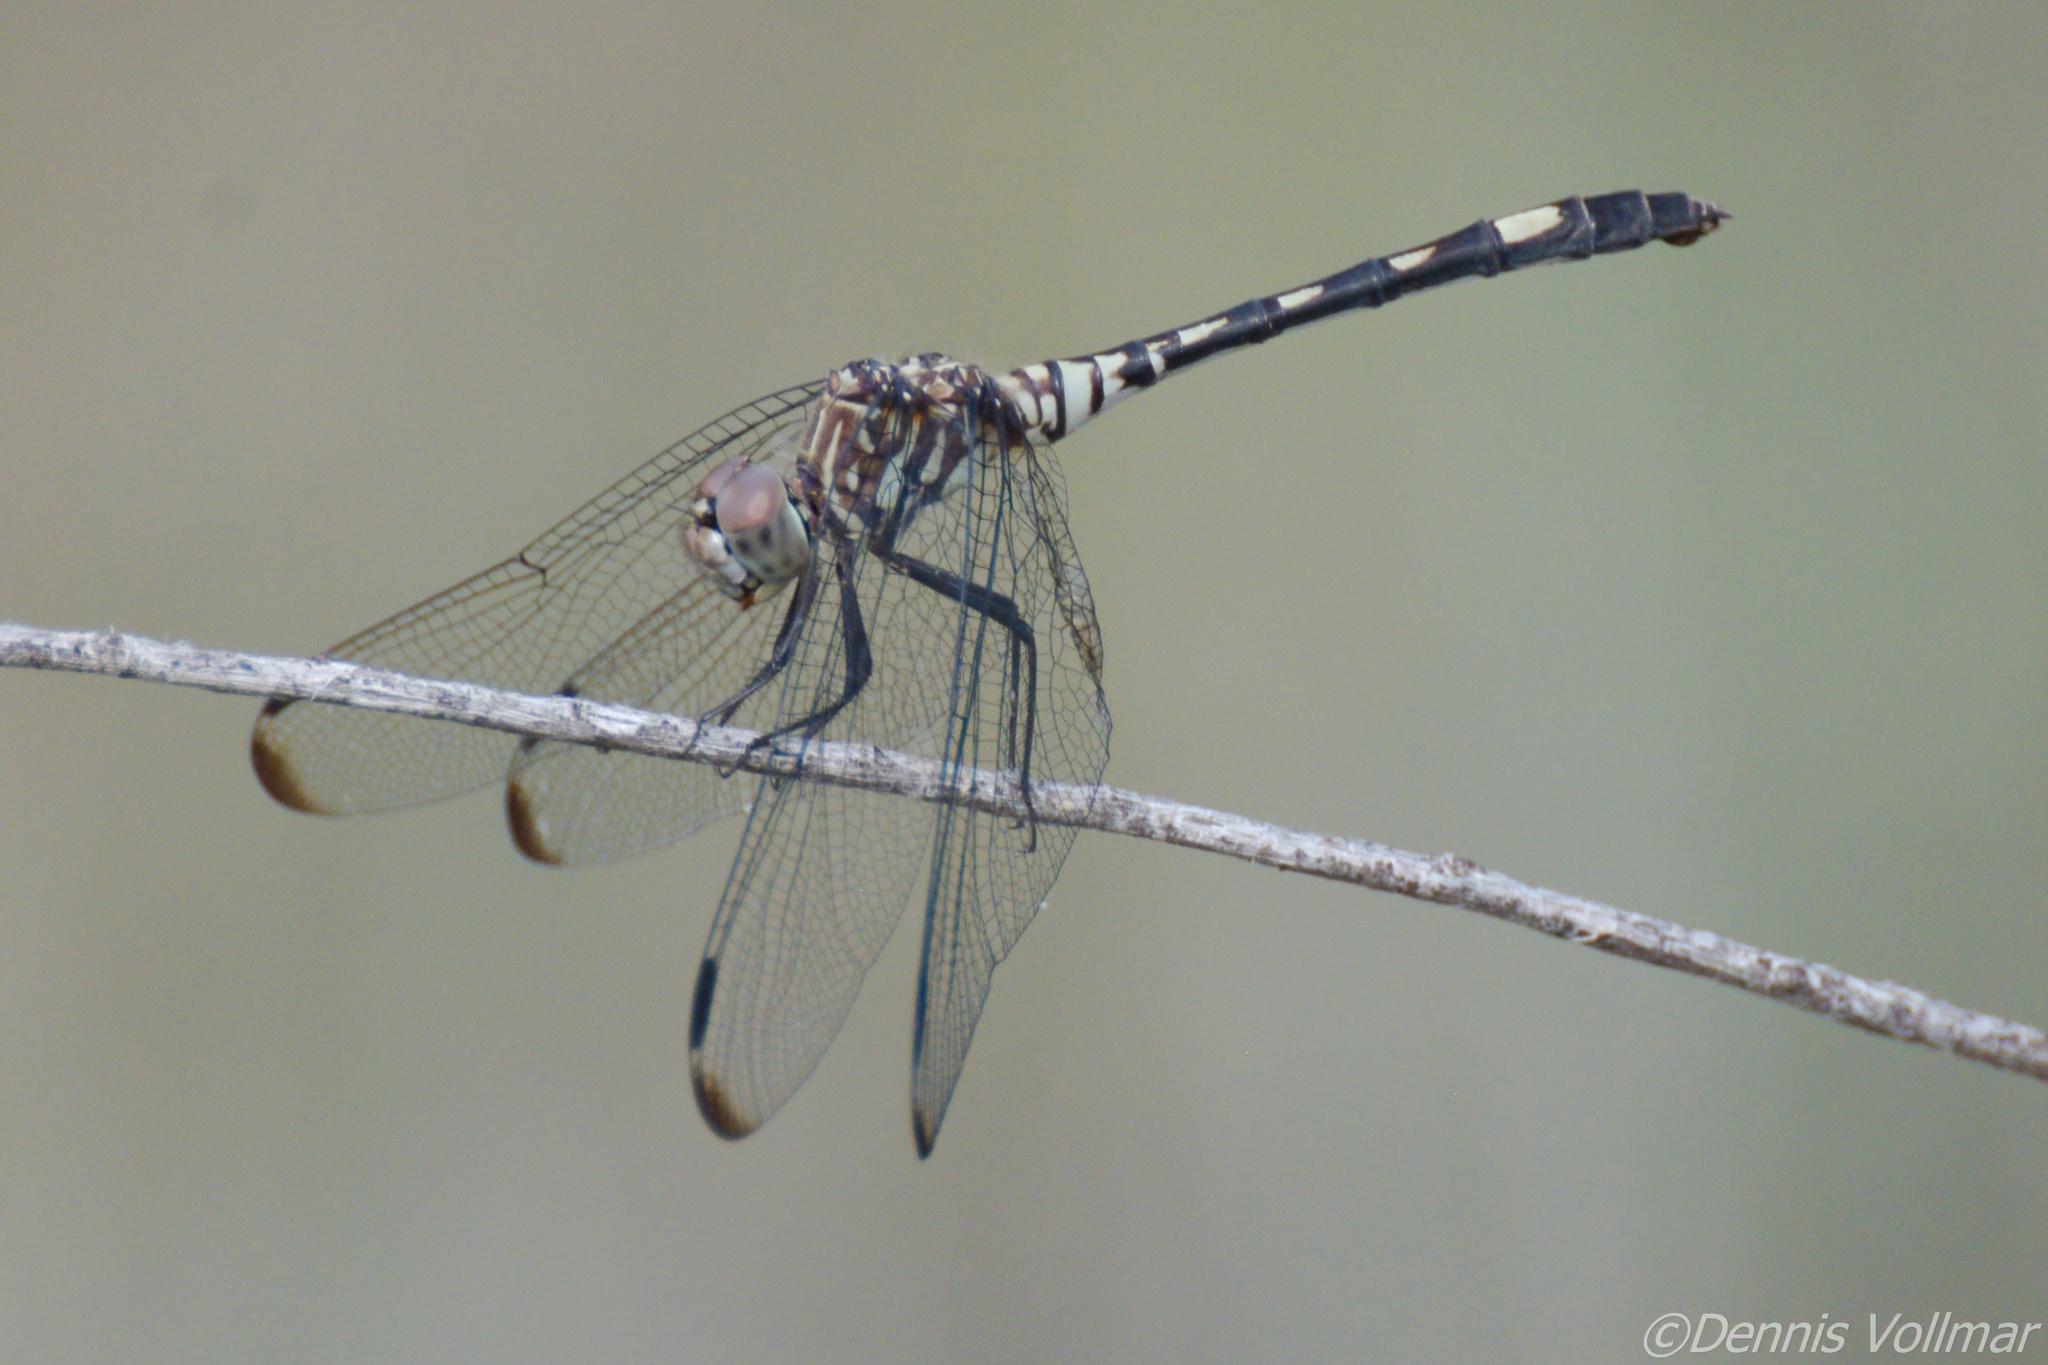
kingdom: Animalia
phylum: Arthropoda
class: Insecta
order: Odonata
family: Libellulidae
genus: Dythemis
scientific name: Dythemis velox
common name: Swift setwing
